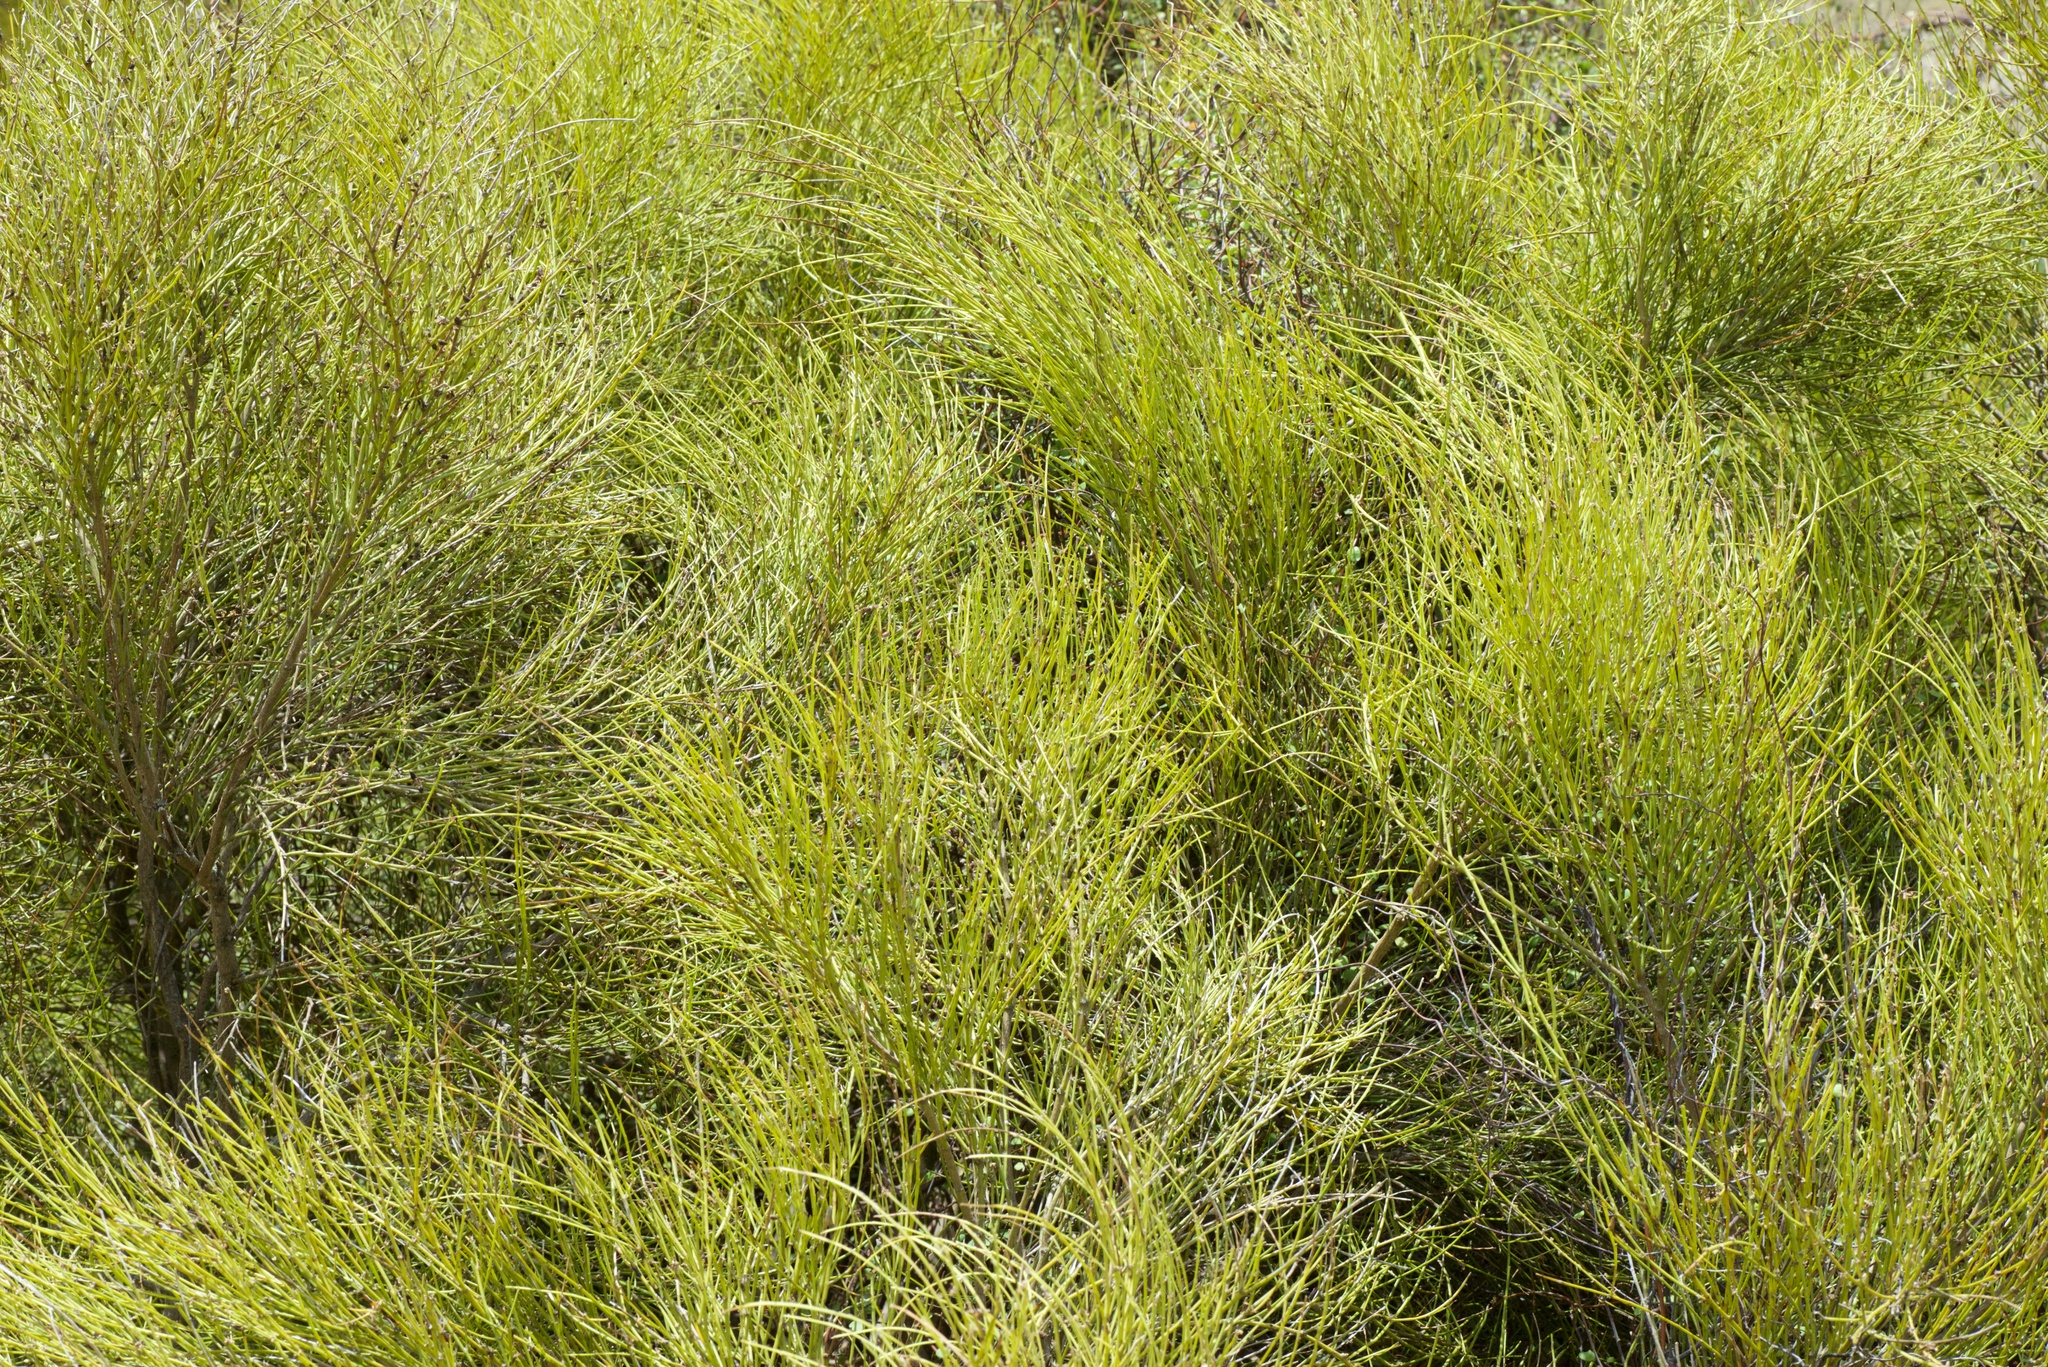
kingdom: Plantae
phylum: Tracheophyta
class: Magnoliopsida
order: Fabales
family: Fabaceae
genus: Carmichaelia
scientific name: Carmichaelia australis
